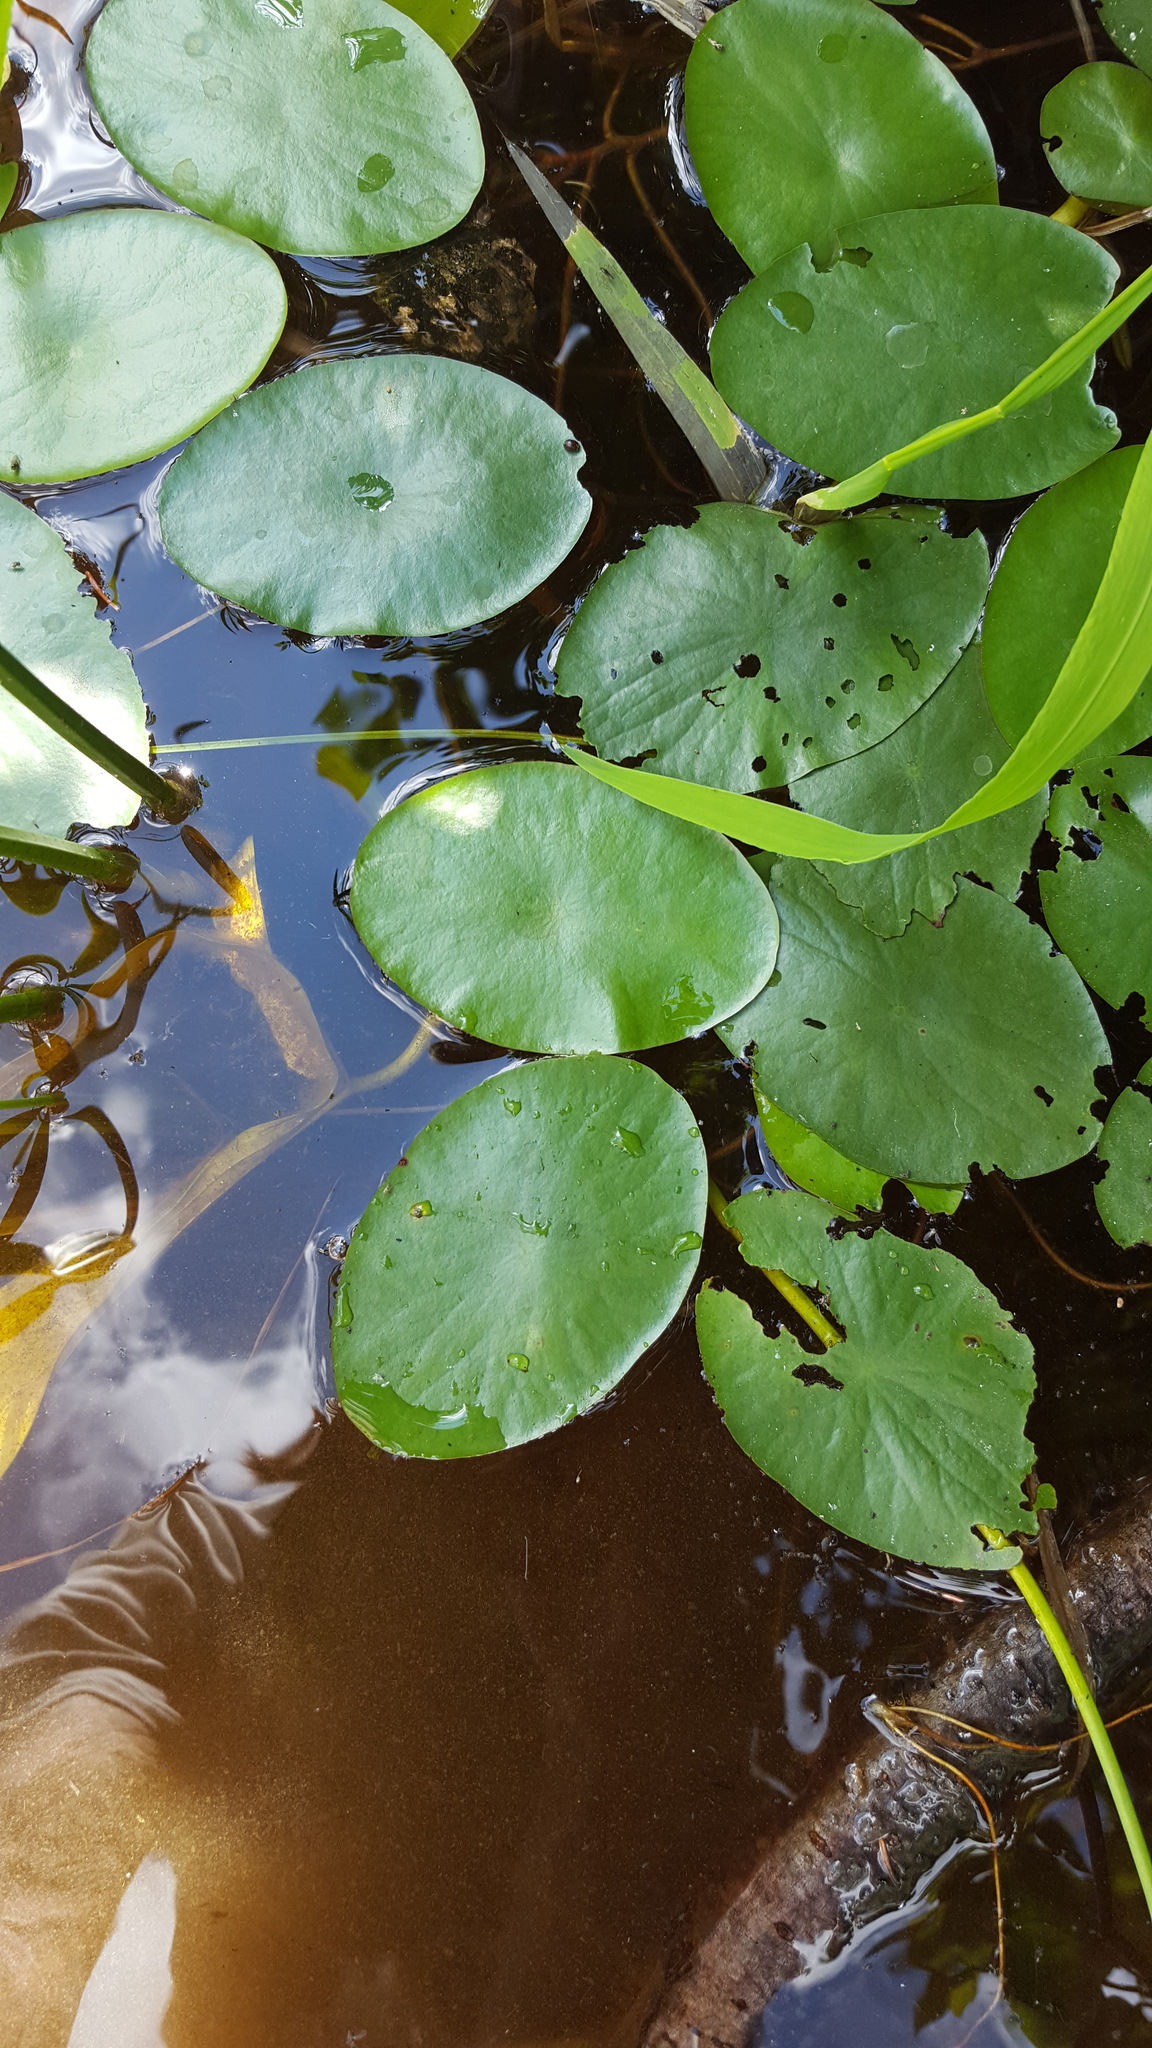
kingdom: Plantae
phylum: Tracheophyta
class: Magnoliopsida
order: Nymphaeales
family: Cabombaceae
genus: Brasenia
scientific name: Brasenia schreberi
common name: Water-shield
